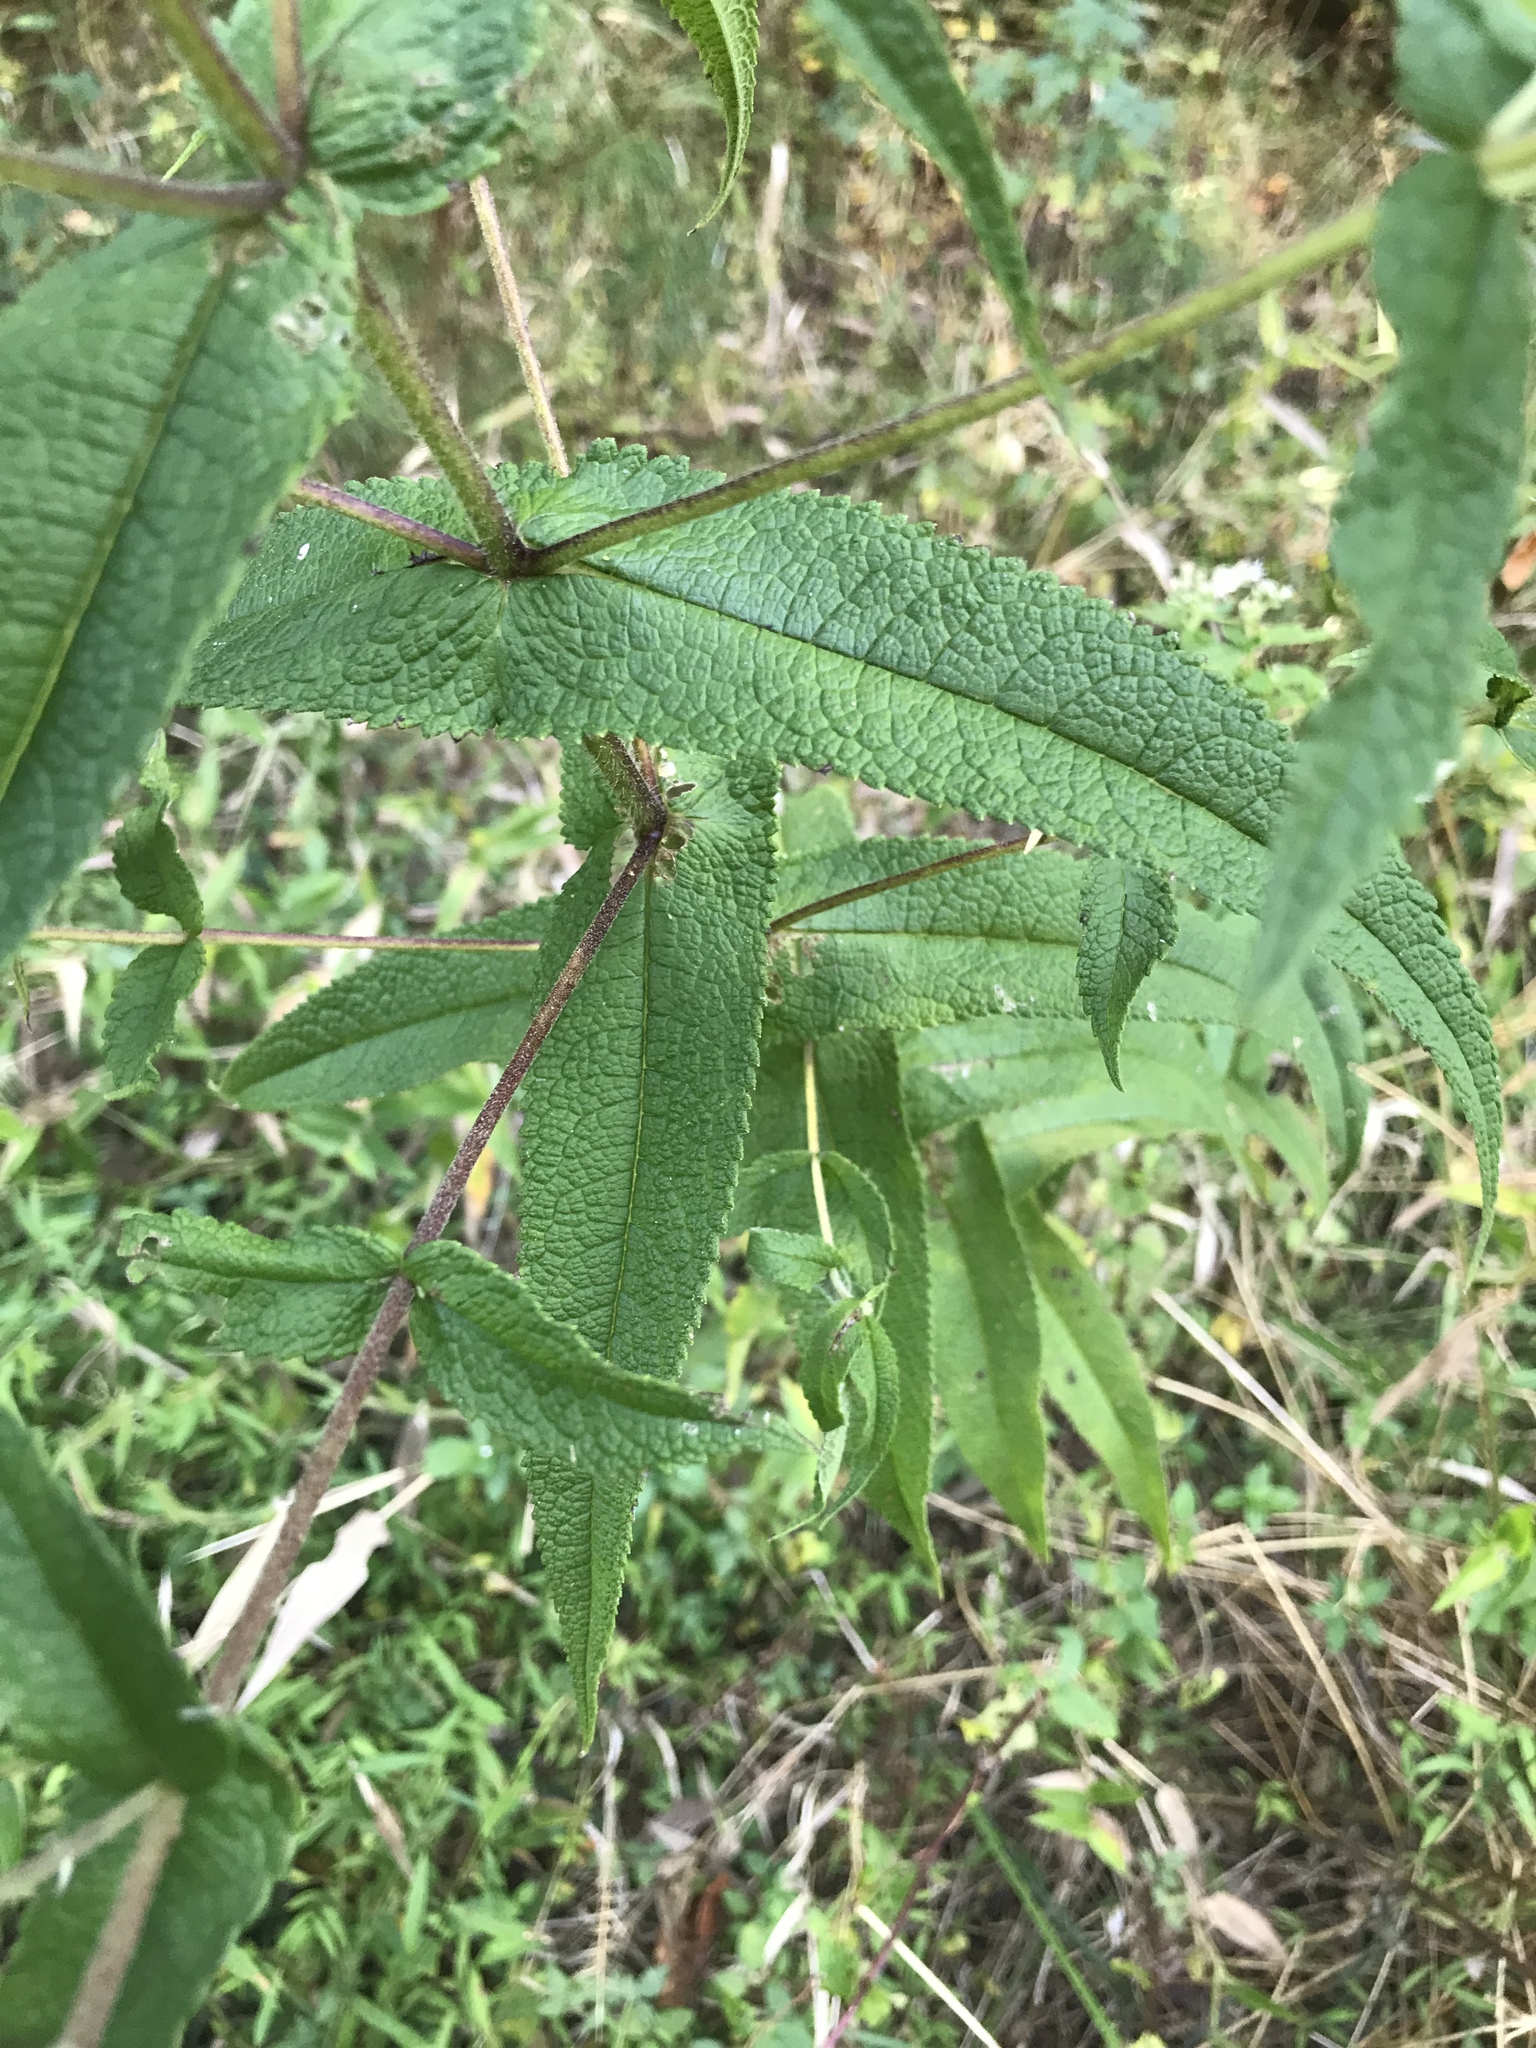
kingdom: Plantae
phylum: Tracheophyta
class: Magnoliopsida
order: Asterales
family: Asteraceae
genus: Eupatorium
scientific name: Eupatorium perfoliatum
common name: Boneset
